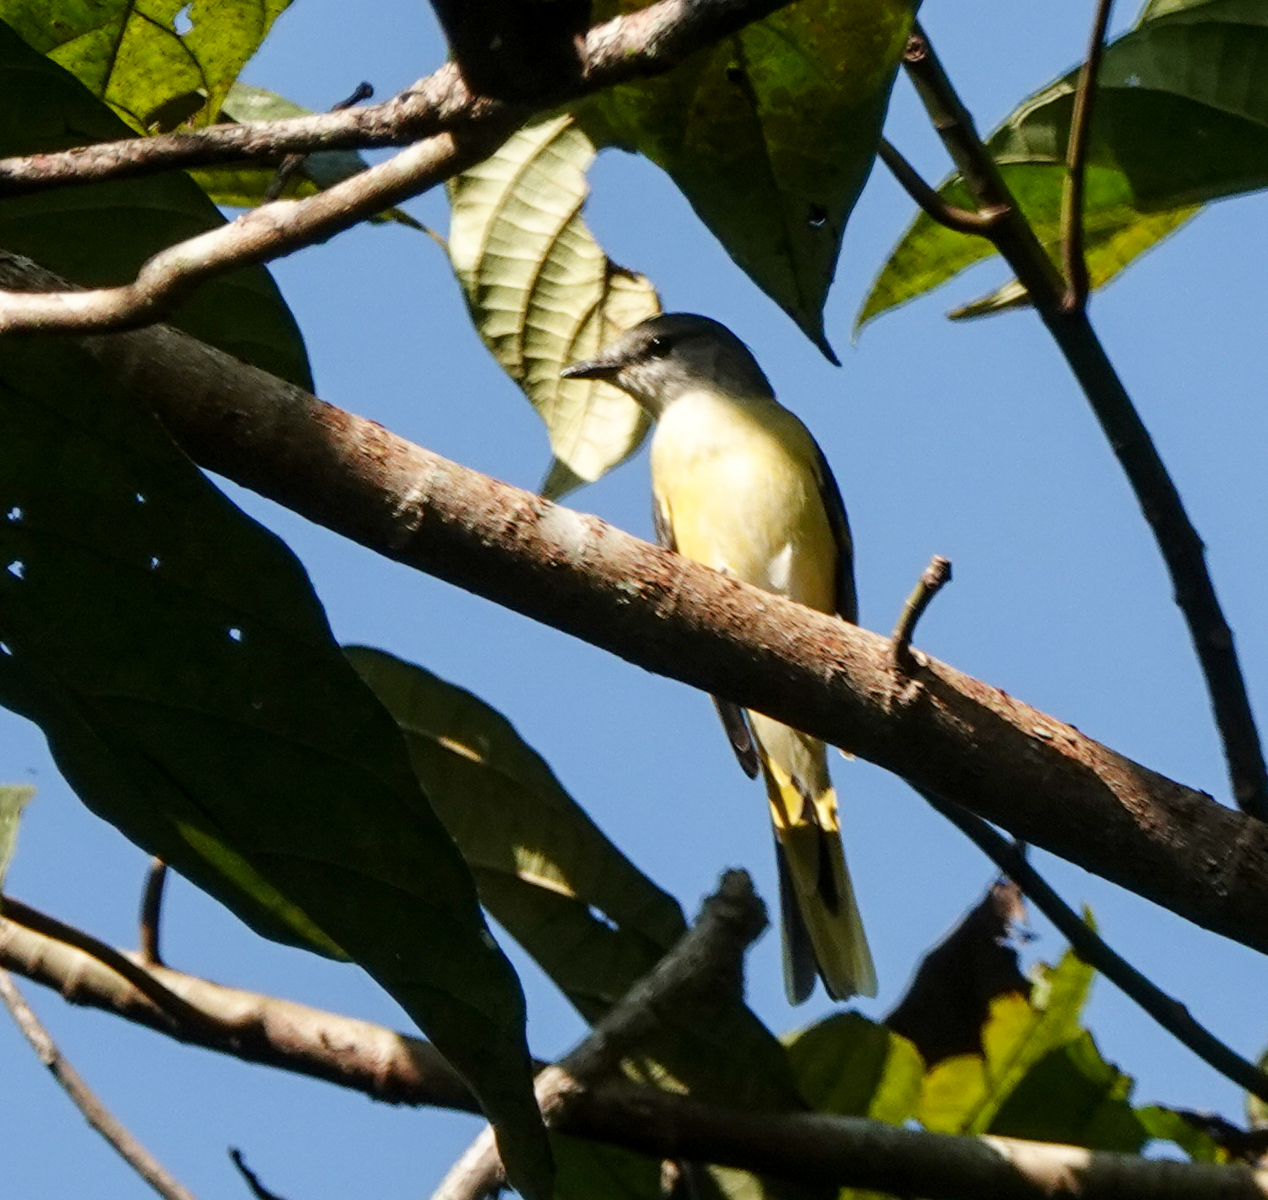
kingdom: Animalia
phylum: Chordata
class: Aves
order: Passeriformes
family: Campephagidae
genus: Pericrocotus
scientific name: Pericrocotus roseus
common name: Rosy minivet
